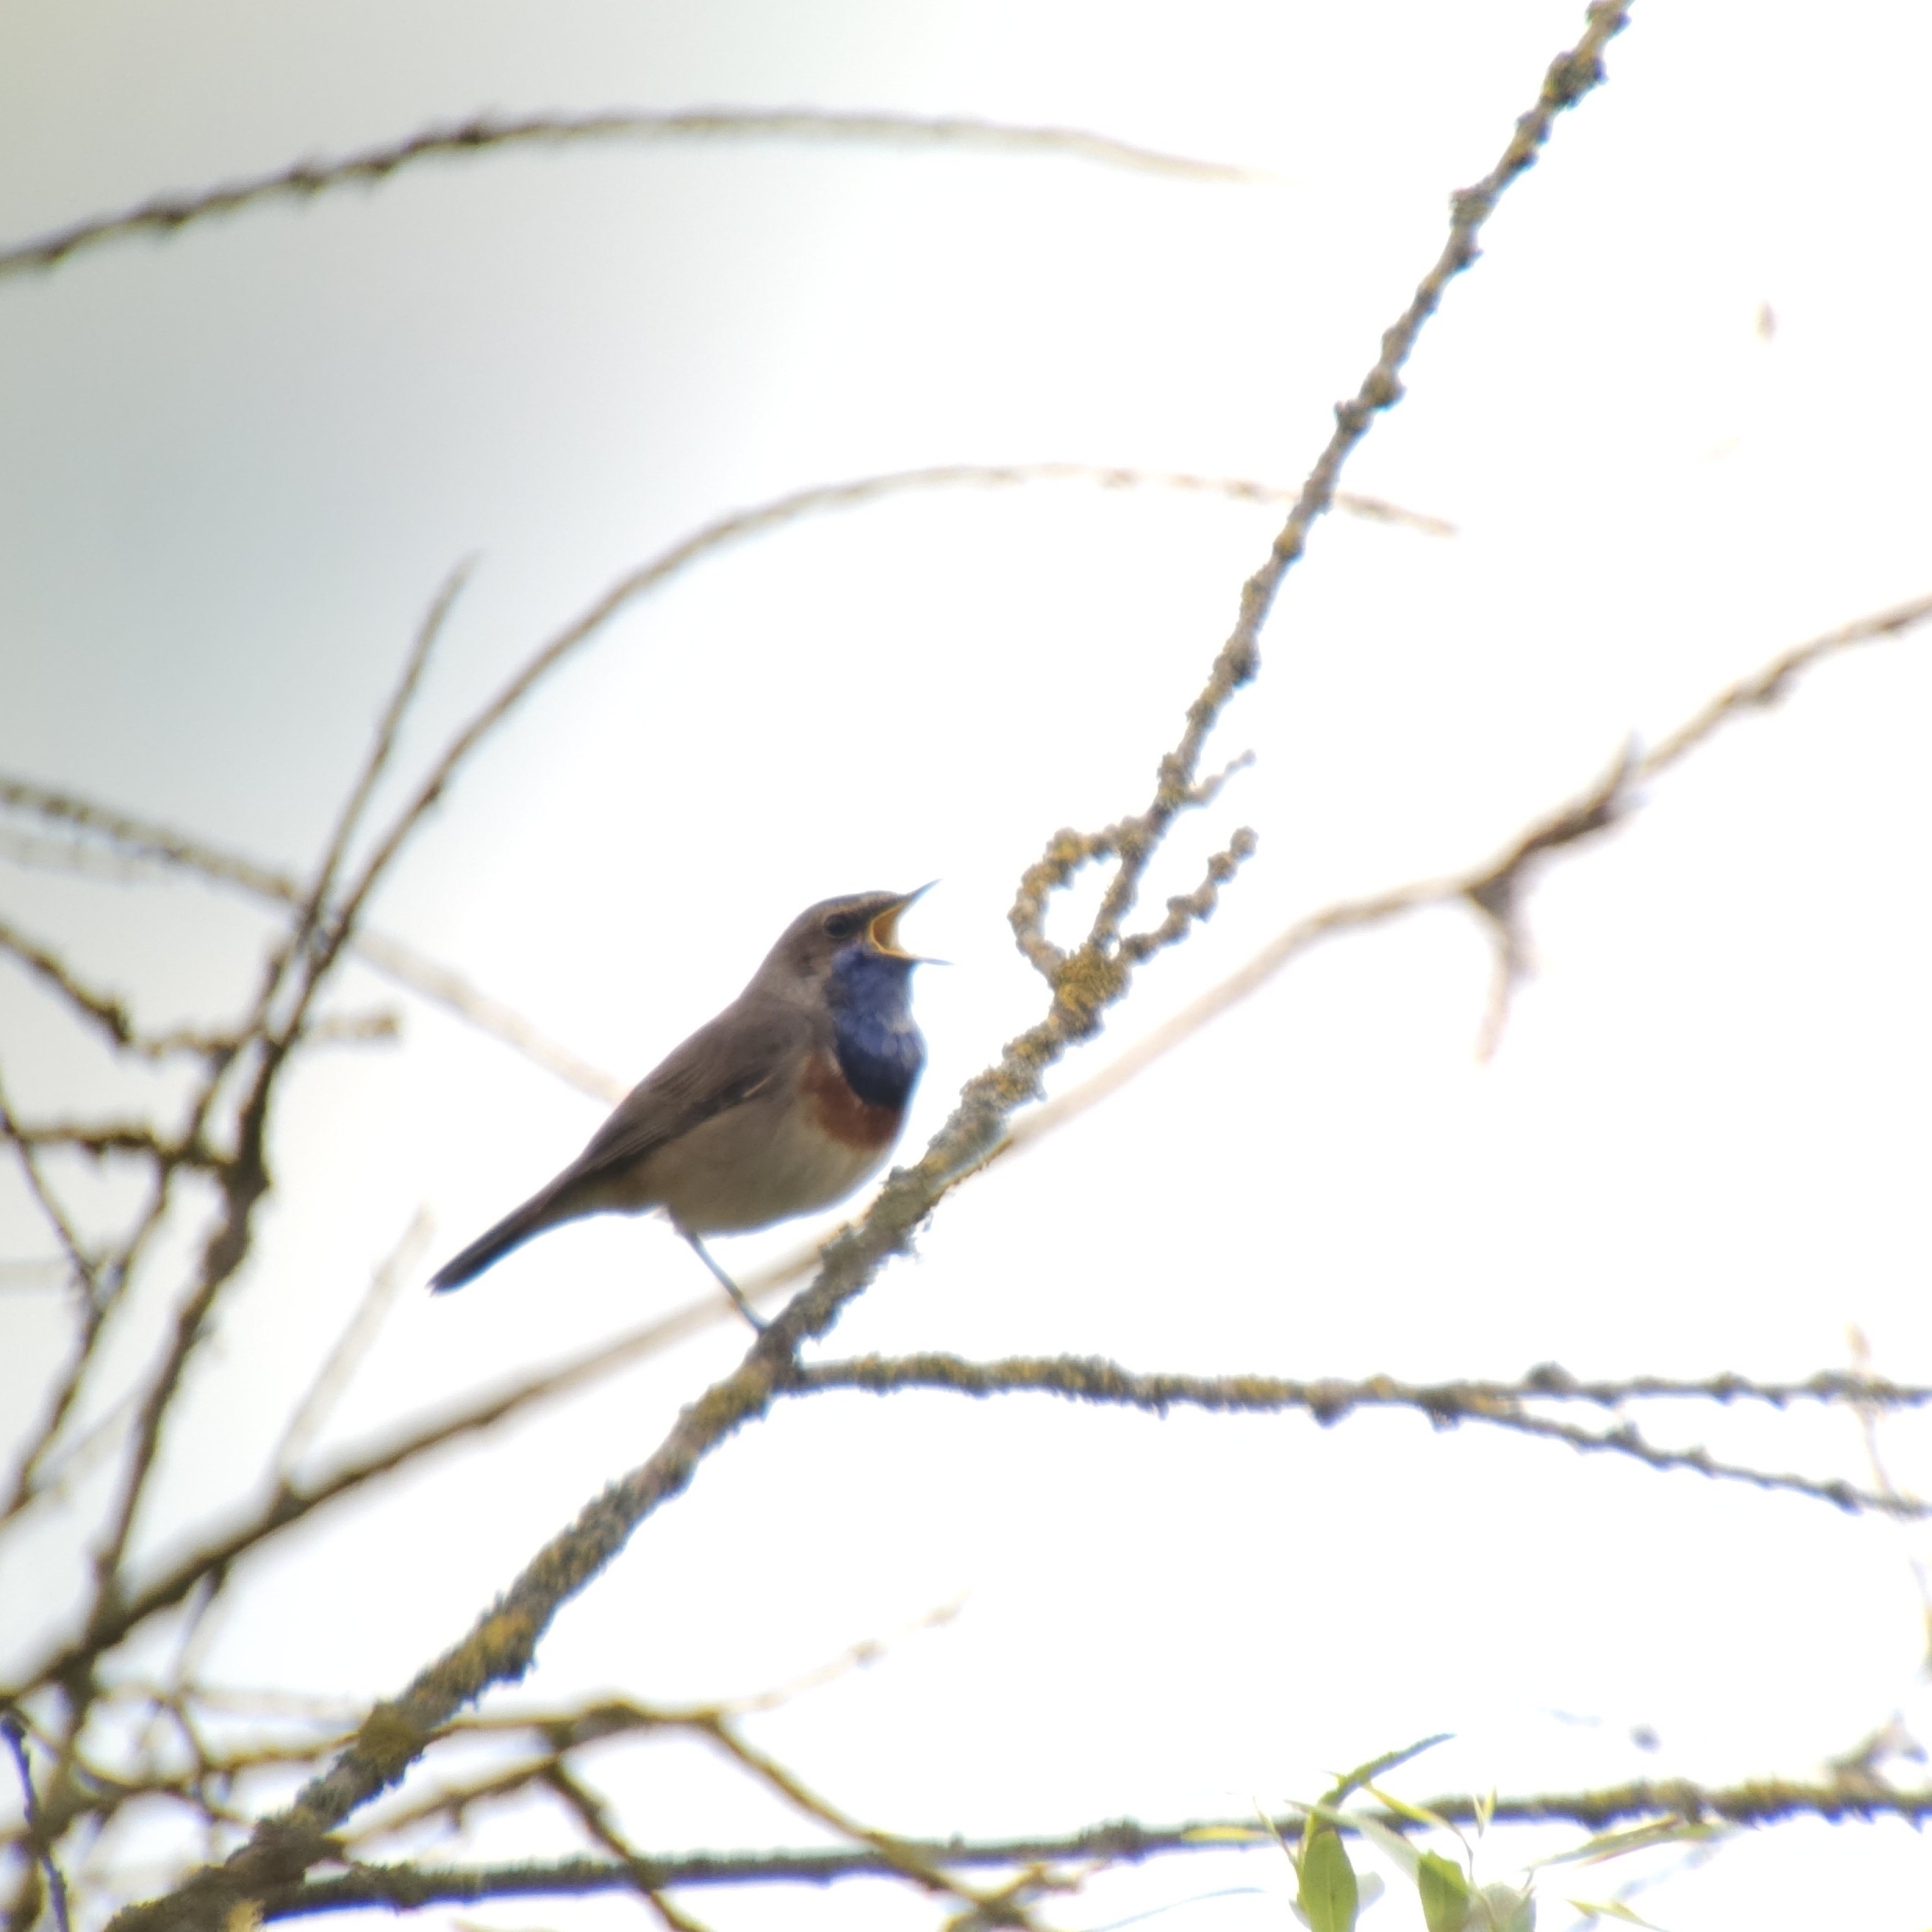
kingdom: Animalia
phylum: Chordata
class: Aves
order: Passeriformes
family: Muscicapidae
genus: Luscinia
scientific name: Luscinia svecica
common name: Bluethroat
